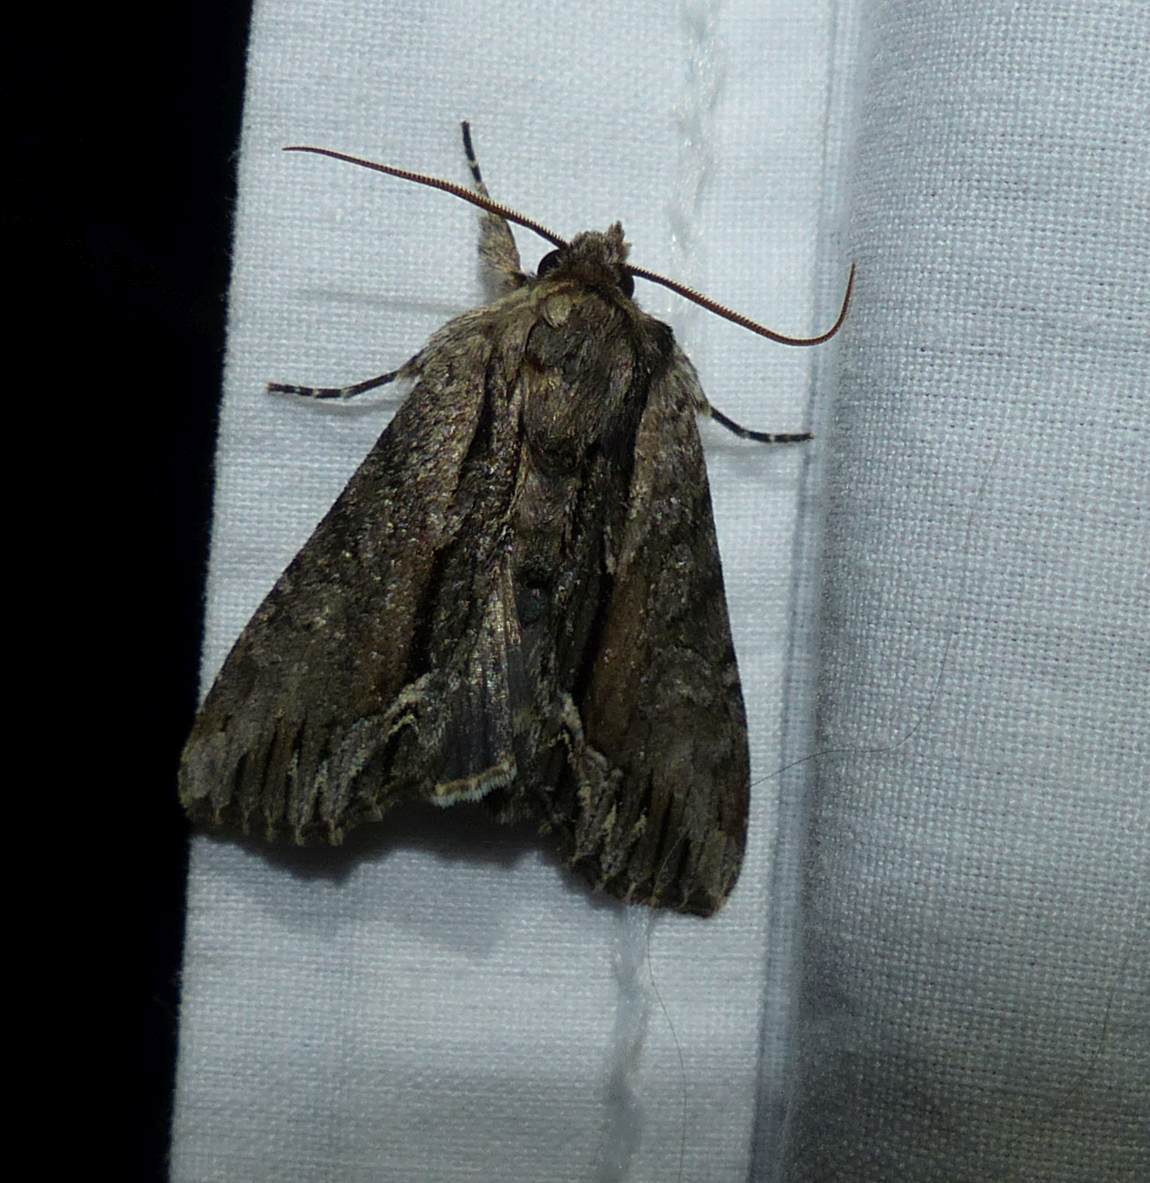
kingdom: Animalia
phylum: Arthropoda
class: Insecta
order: Lepidoptera
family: Noctuidae
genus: Hyppa
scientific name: Hyppa xylinoides
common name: Common hyppa moth
